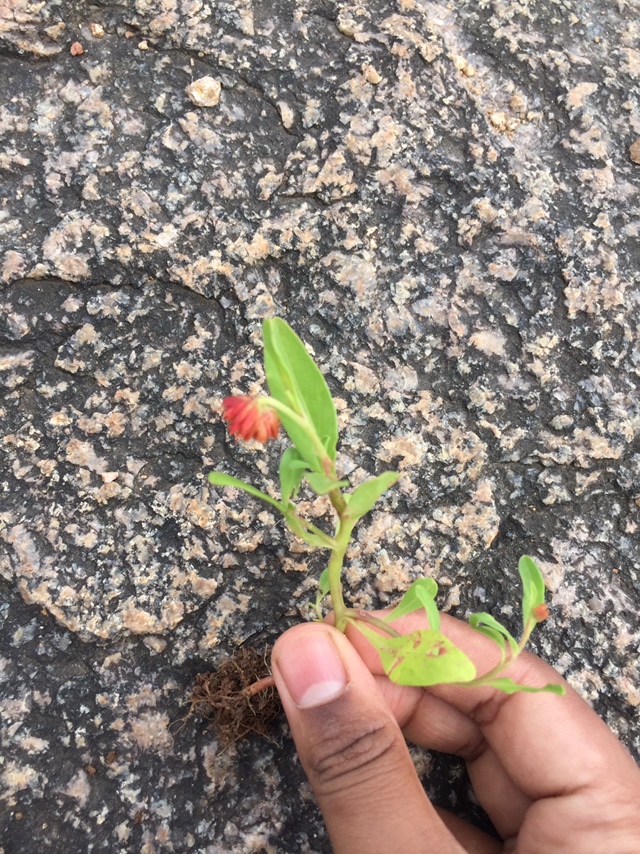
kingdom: Plantae
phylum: Tracheophyta
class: Magnoliopsida
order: Caryophyllales
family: Amaranthaceae
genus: Allmania
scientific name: Allmania nodiflora
